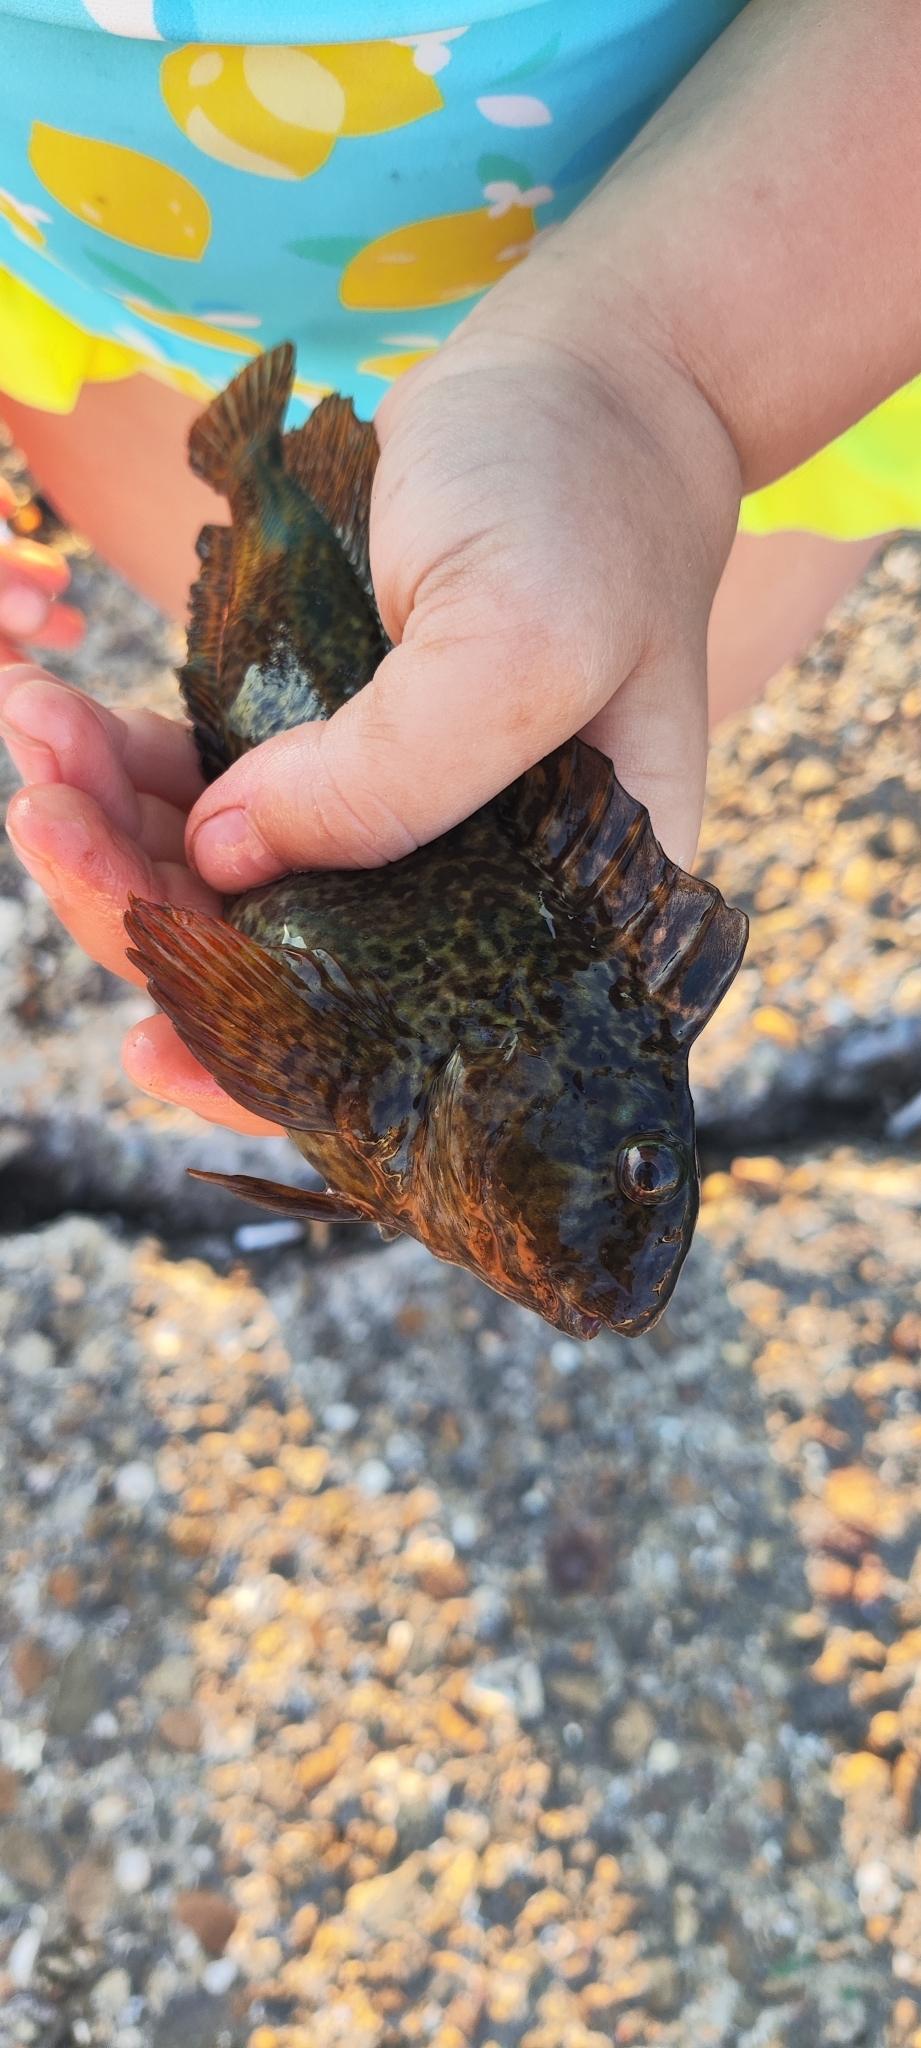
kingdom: Animalia
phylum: Chordata
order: Perciformes
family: Blenniidae
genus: Parablennius
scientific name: Parablennius sanguinolentus
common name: Black sea blenny
